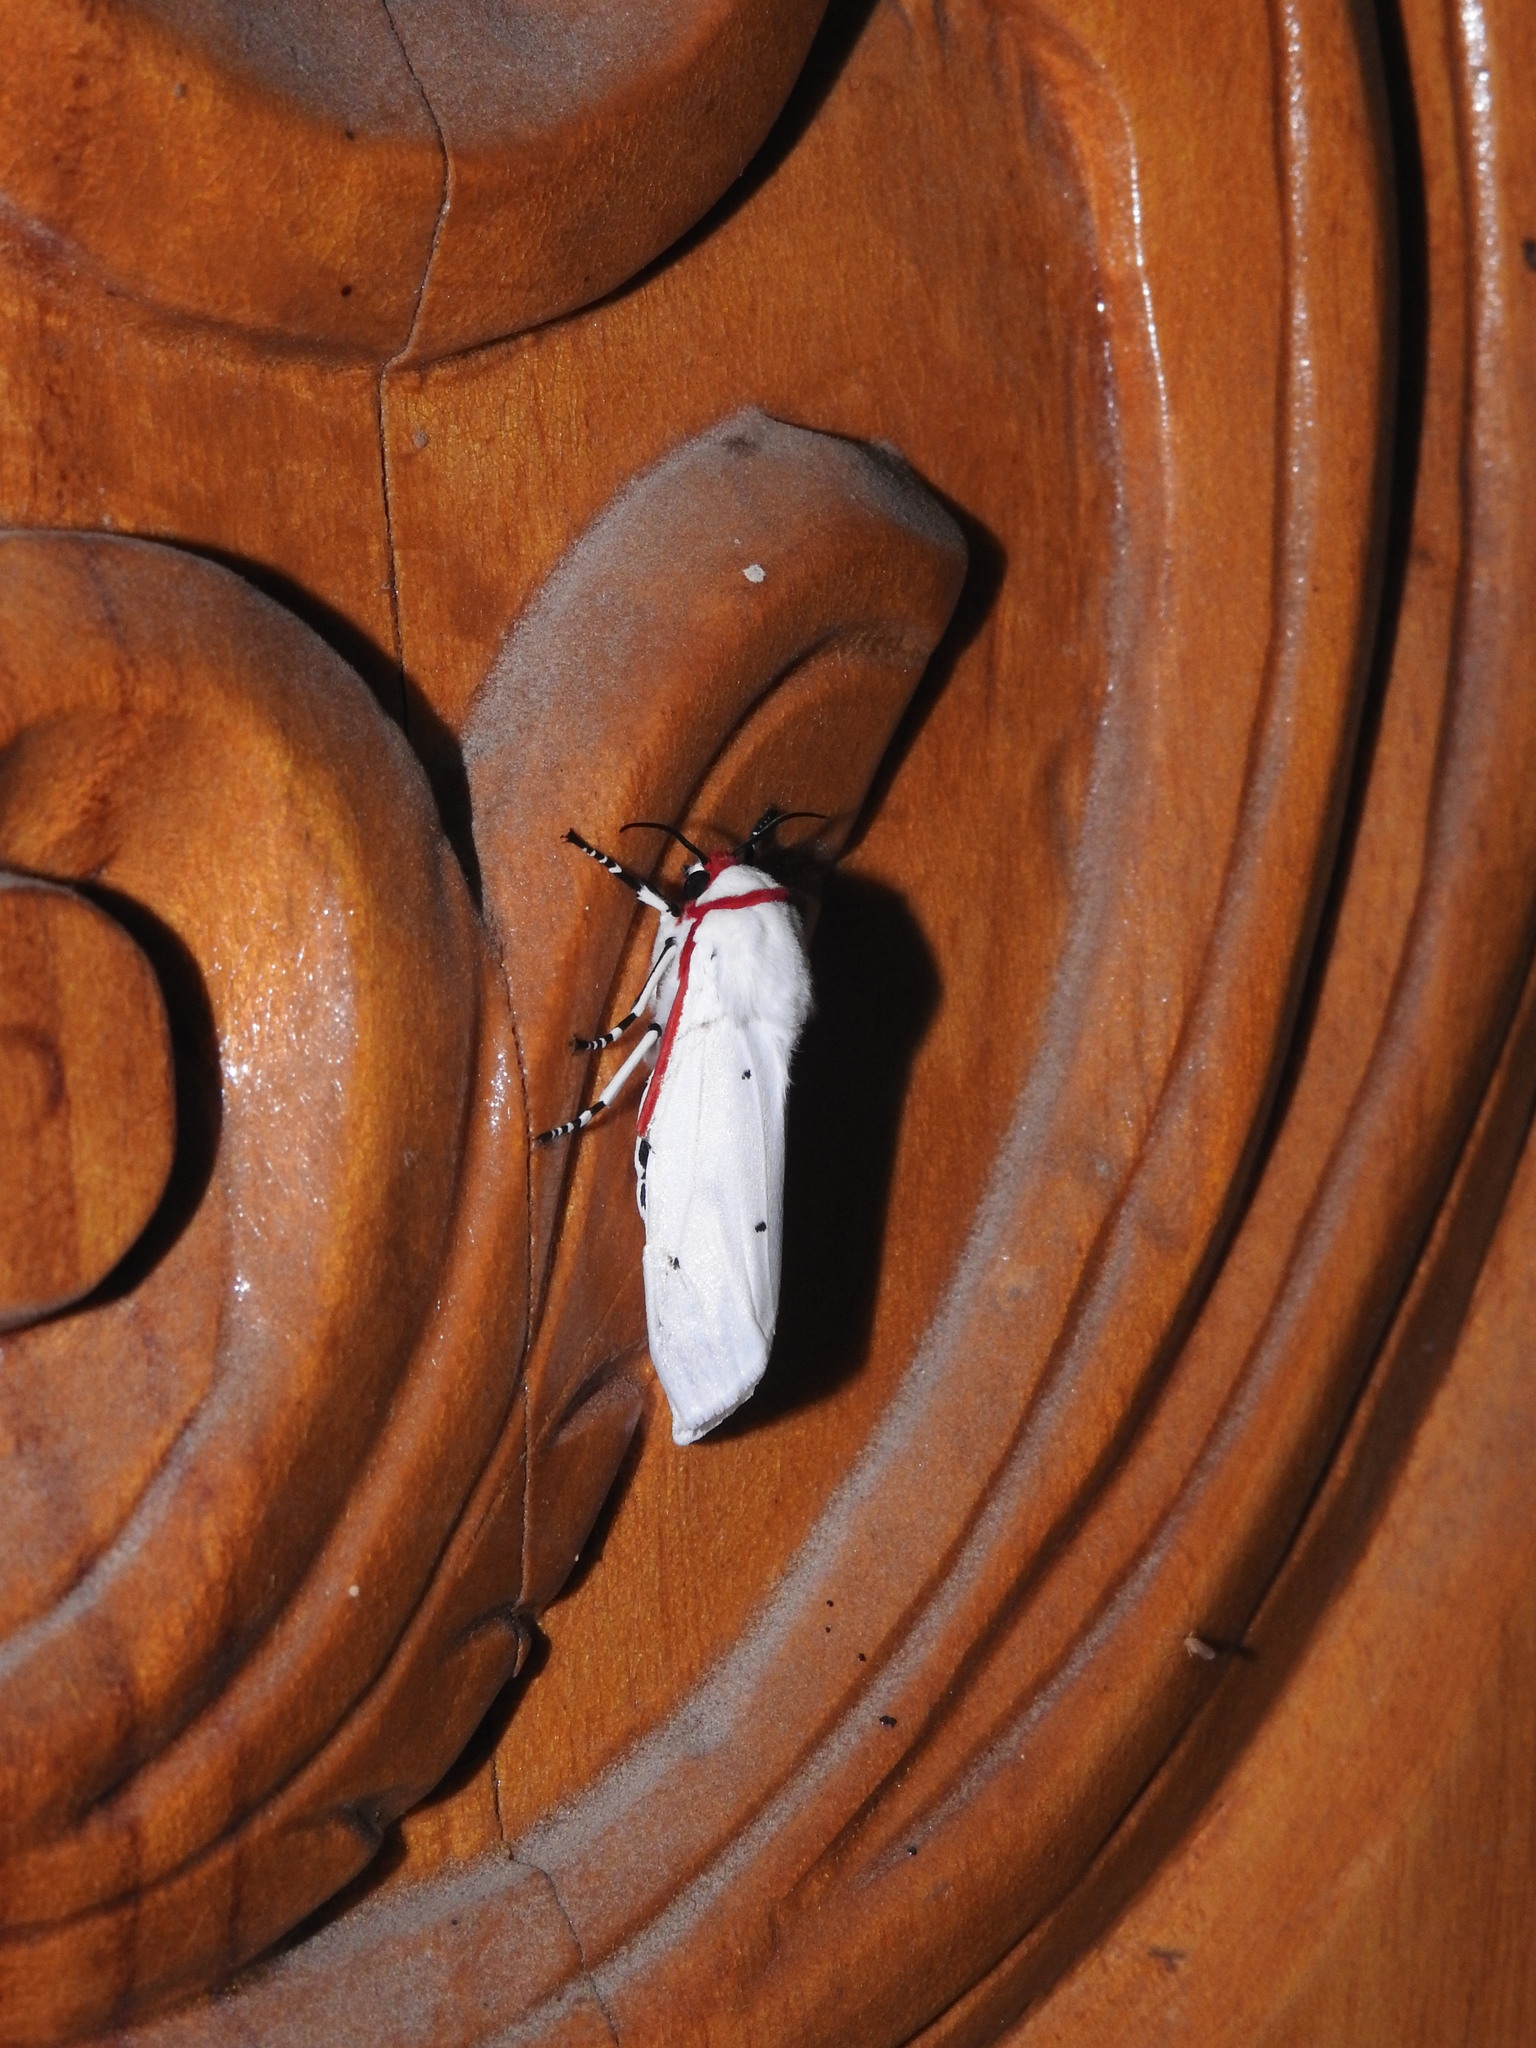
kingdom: Animalia
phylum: Arthropoda
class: Insecta
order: Lepidoptera
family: Erebidae
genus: Aloa
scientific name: Aloa lactinea
